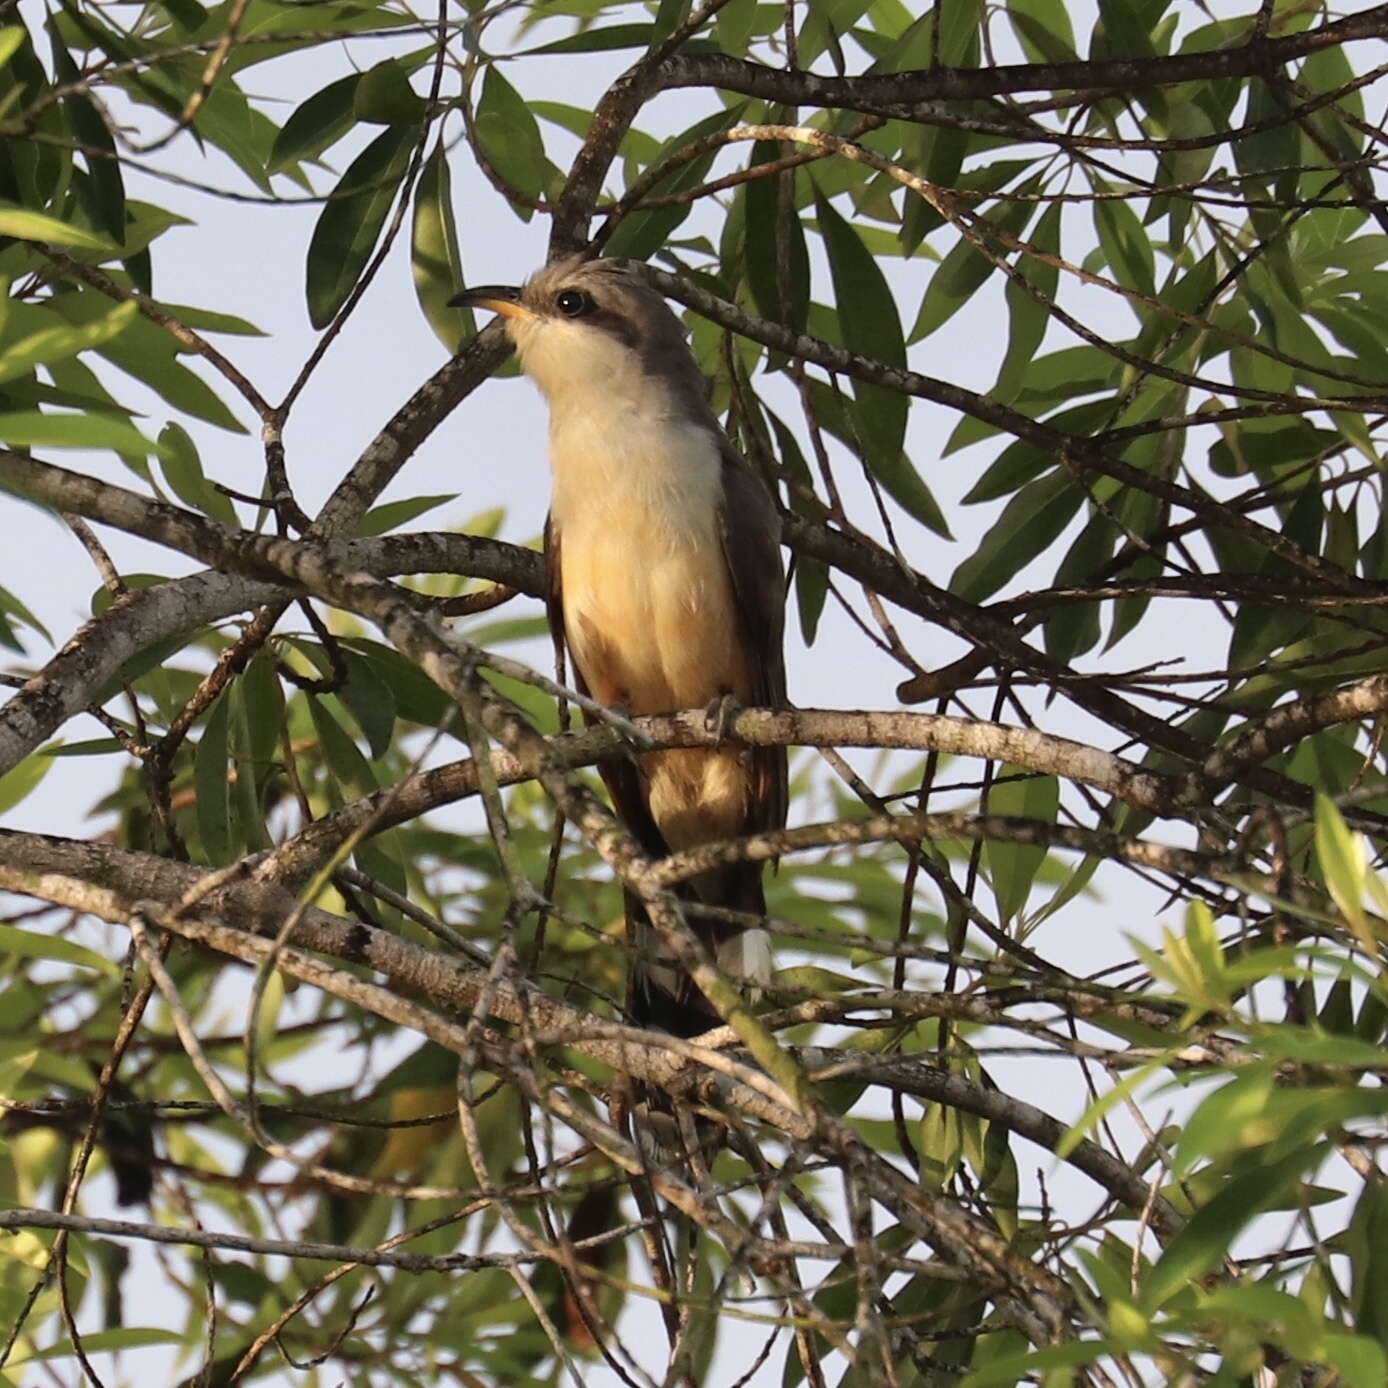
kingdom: Animalia
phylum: Chordata
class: Aves
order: Cuculiformes
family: Cuculidae
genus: Coccyzus
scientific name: Coccyzus minor
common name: Mangrove cuckoo
